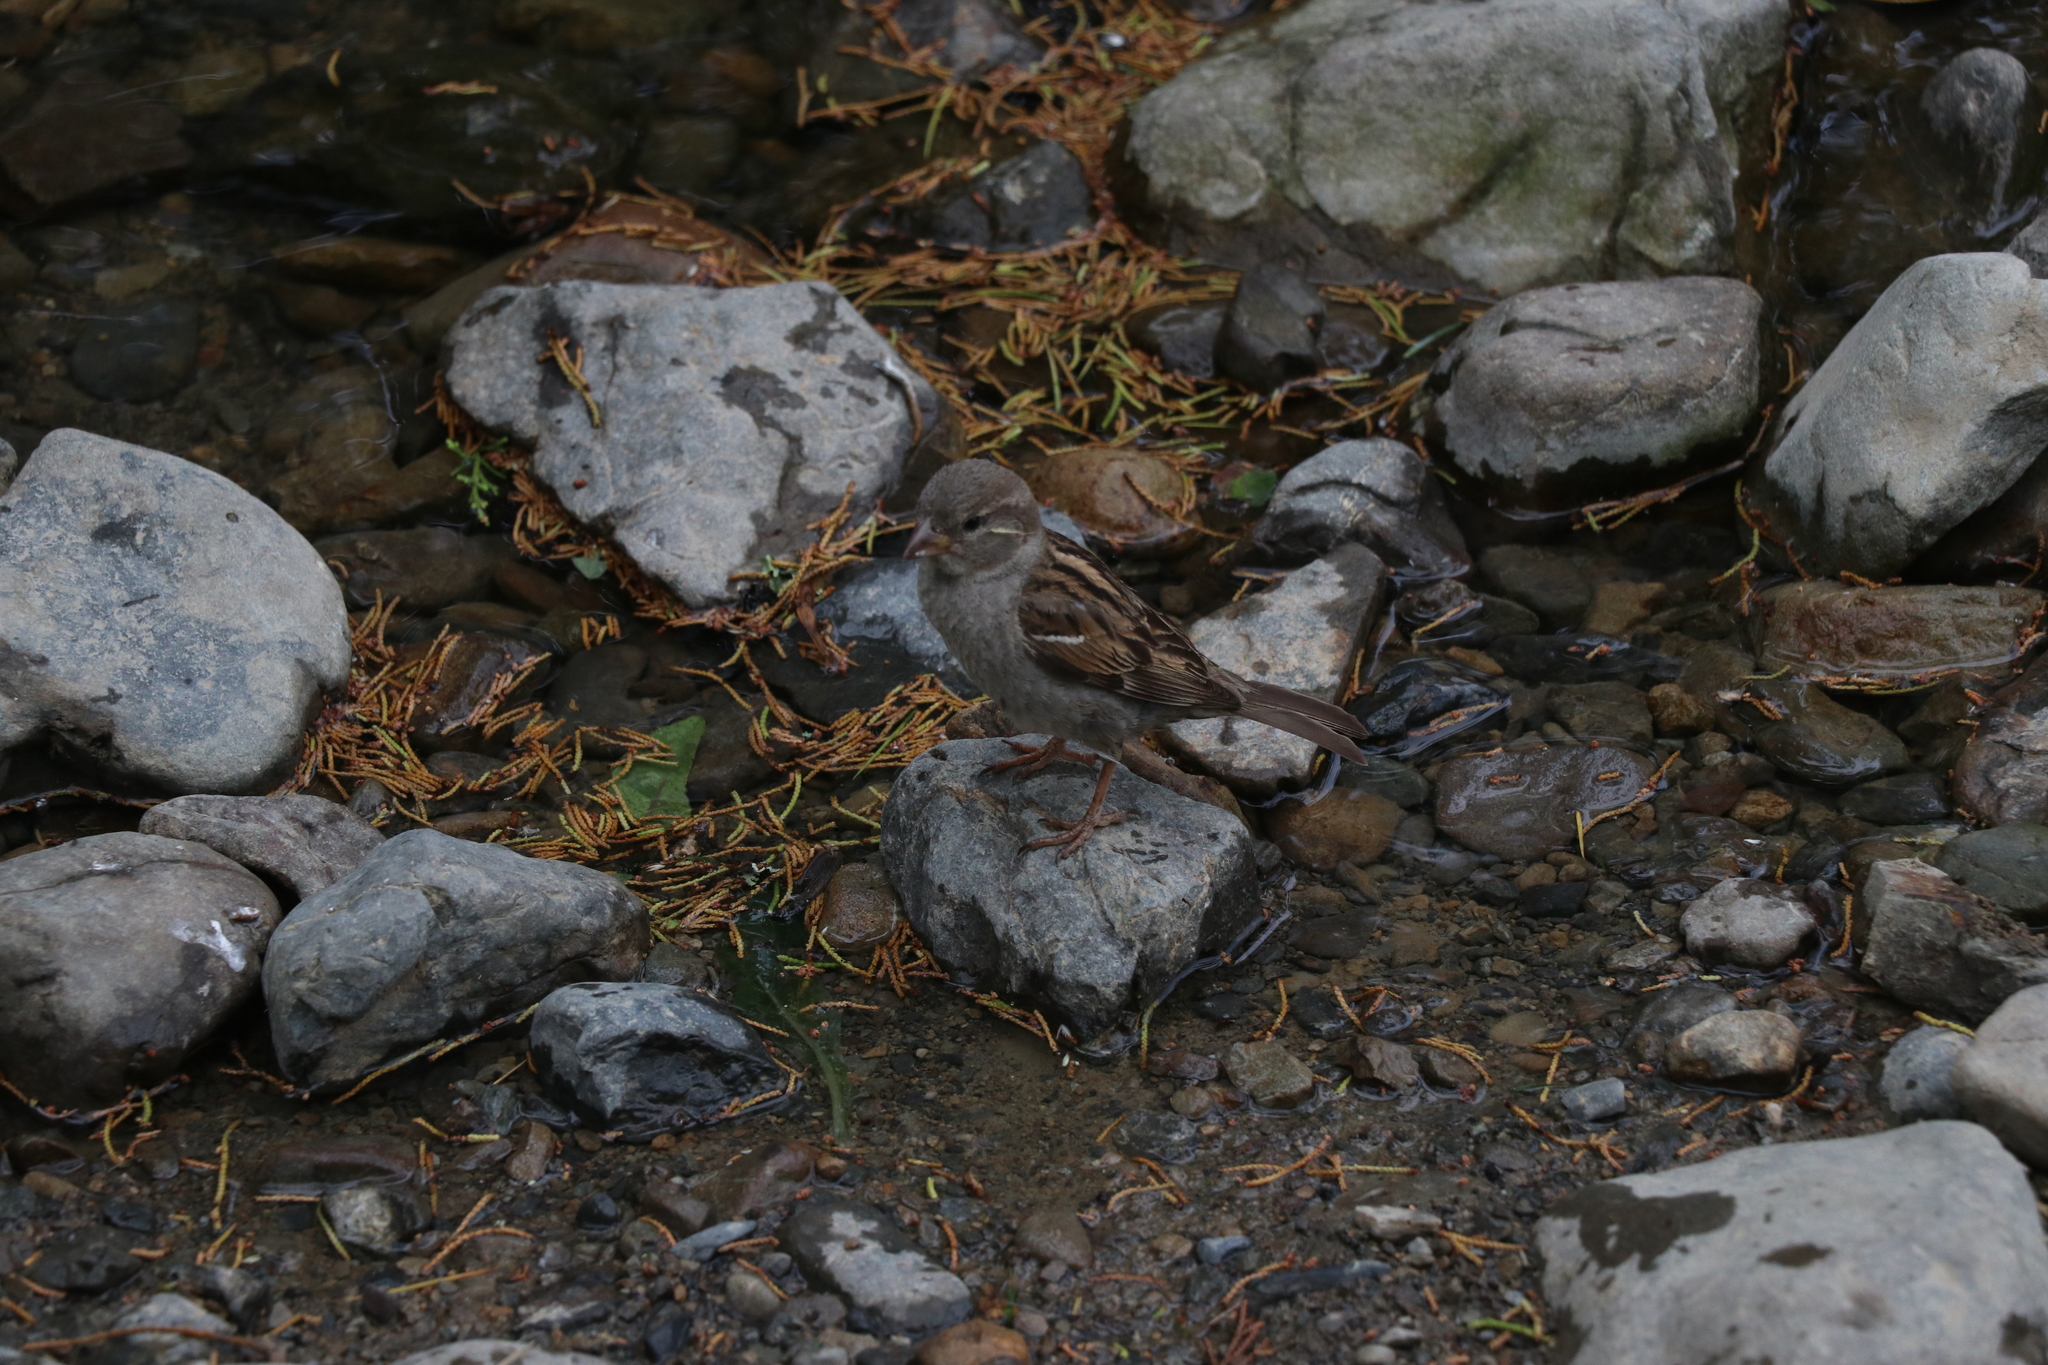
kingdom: Animalia
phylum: Chordata
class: Aves
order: Passeriformes
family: Passeridae
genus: Passer
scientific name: Passer domesticus
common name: House sparrow
